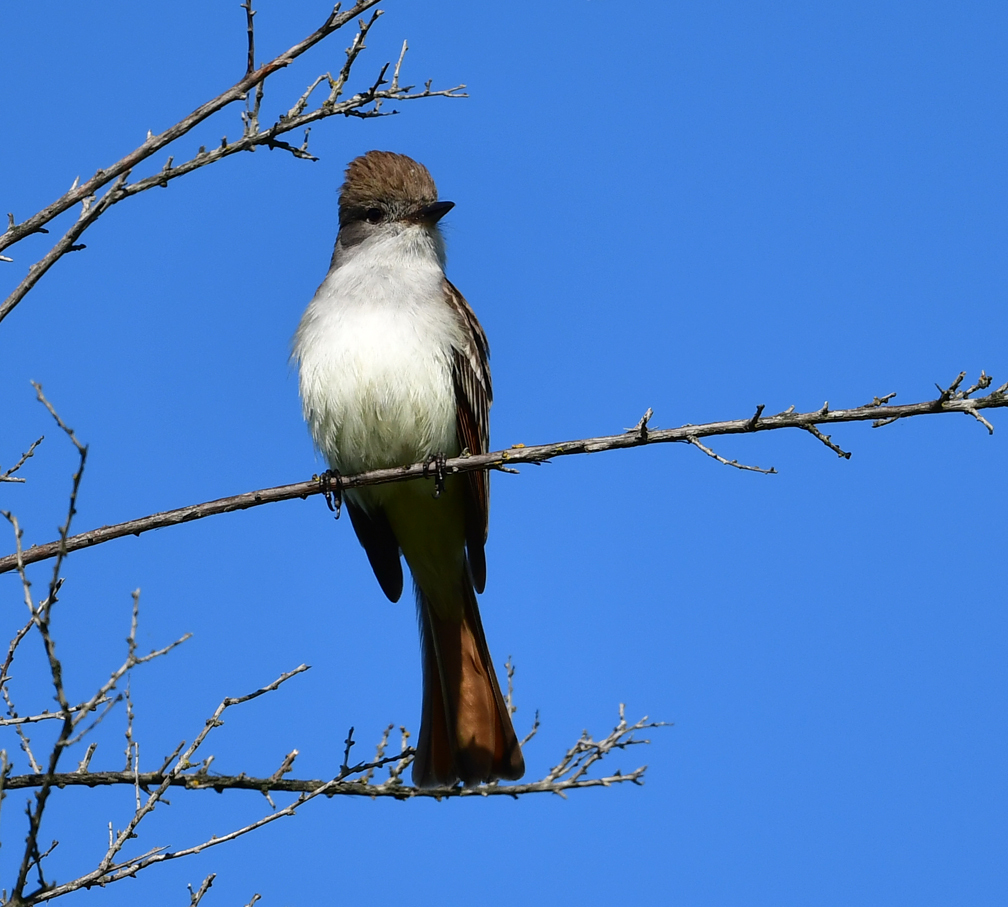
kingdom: Animalia
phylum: Chordata
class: Aves
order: Passeriformes
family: Tyrannidae
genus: Myiarchus
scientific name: Myiarchus cinerascens
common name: Ash-throated flycatcher
